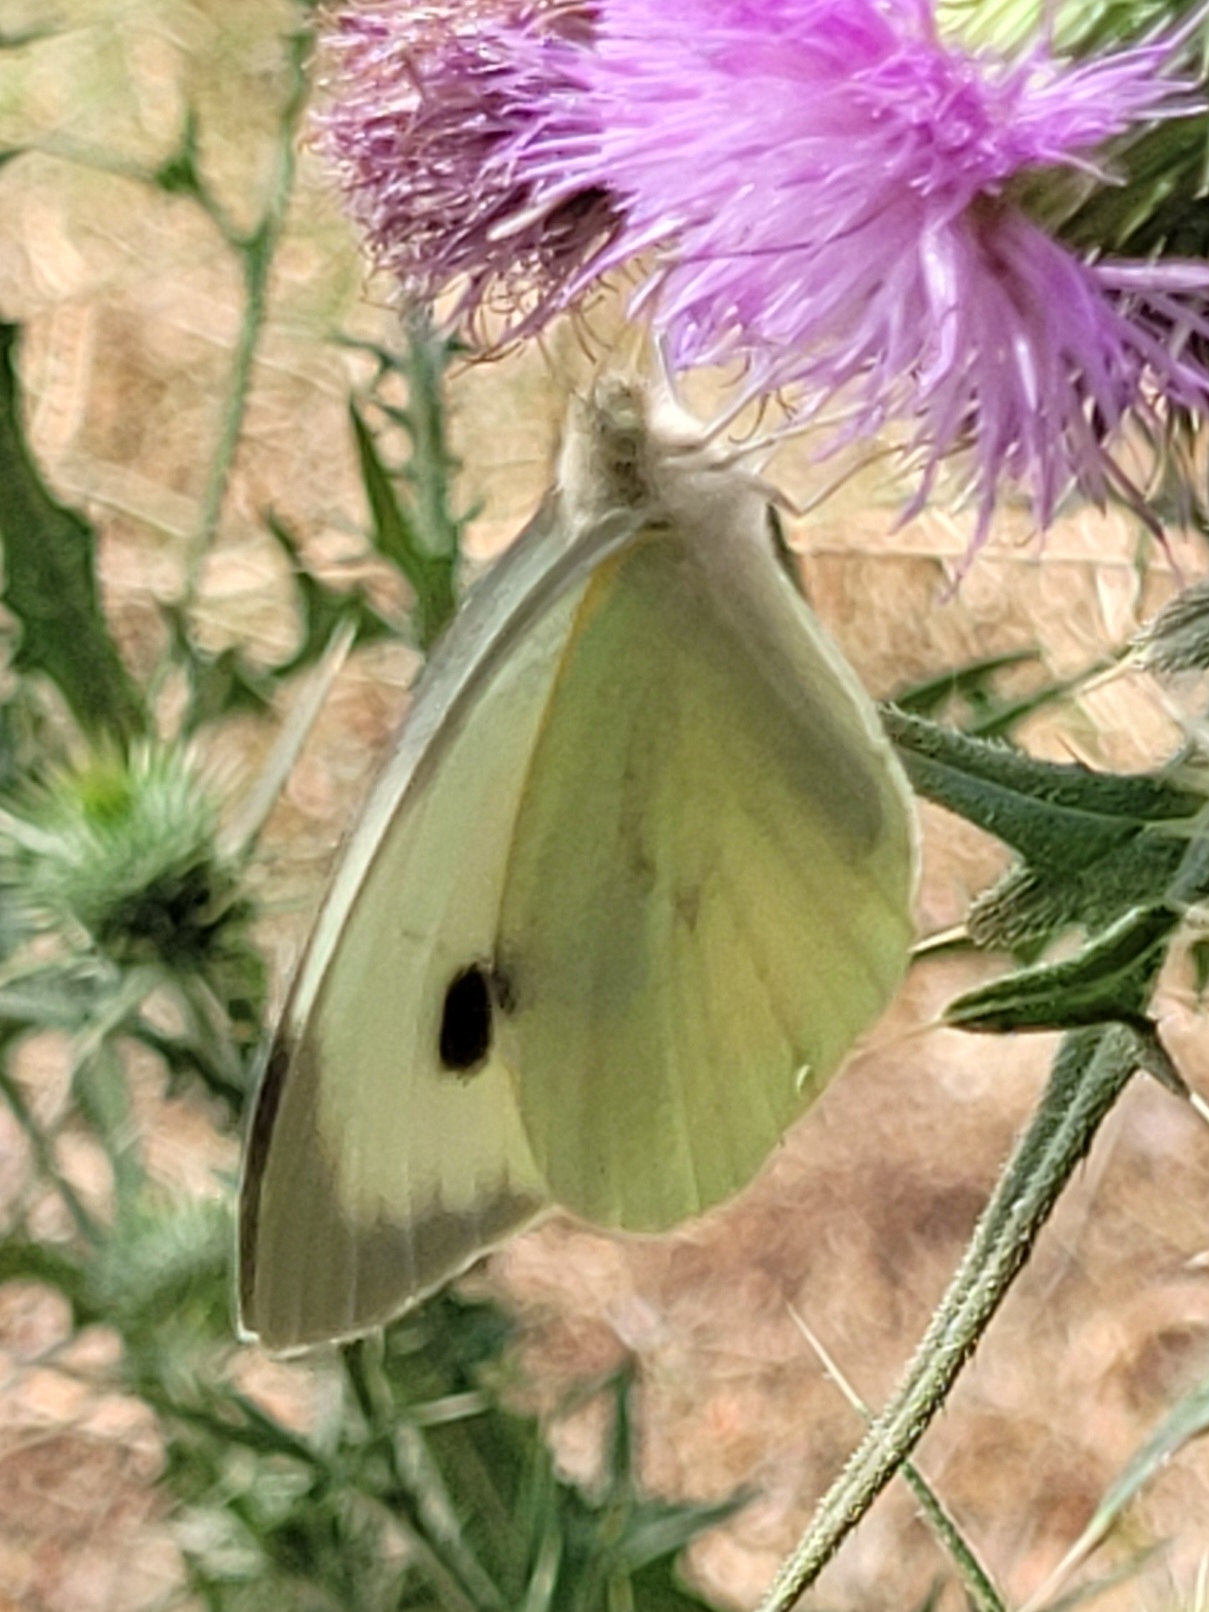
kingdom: Animalia
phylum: Arthropoda
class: Insecta
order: Lepidoptera
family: Pieridae
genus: Pieris
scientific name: Pieris brassicae
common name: Large white
